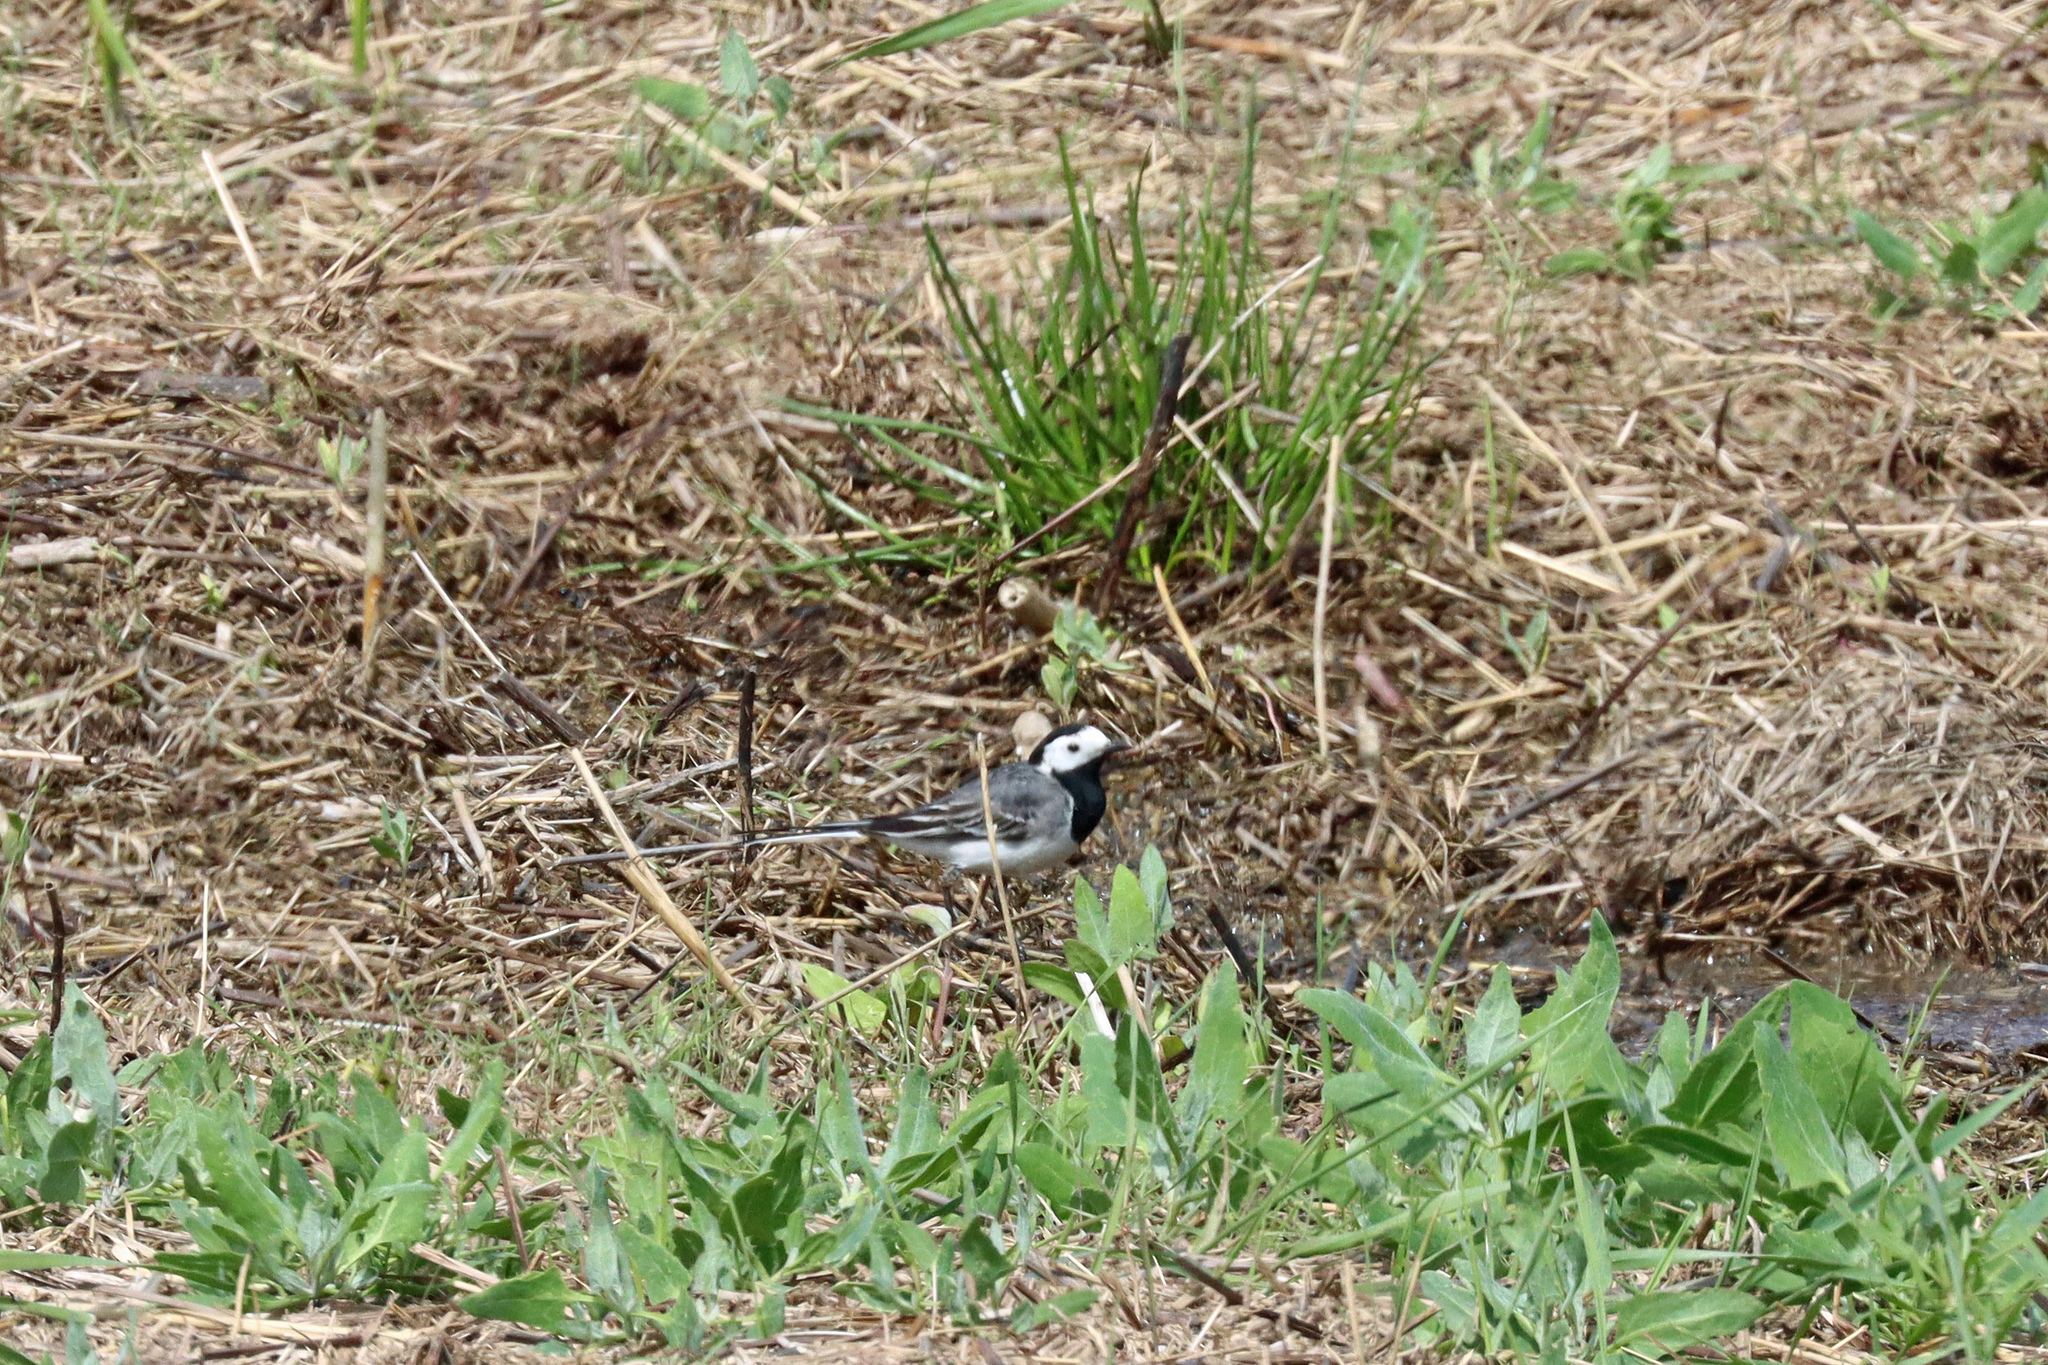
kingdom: Animalia
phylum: Chordata
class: Aves
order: Passeriformes
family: Motacillidae
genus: Motacilla
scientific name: Motacilla alba
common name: White wagtail
